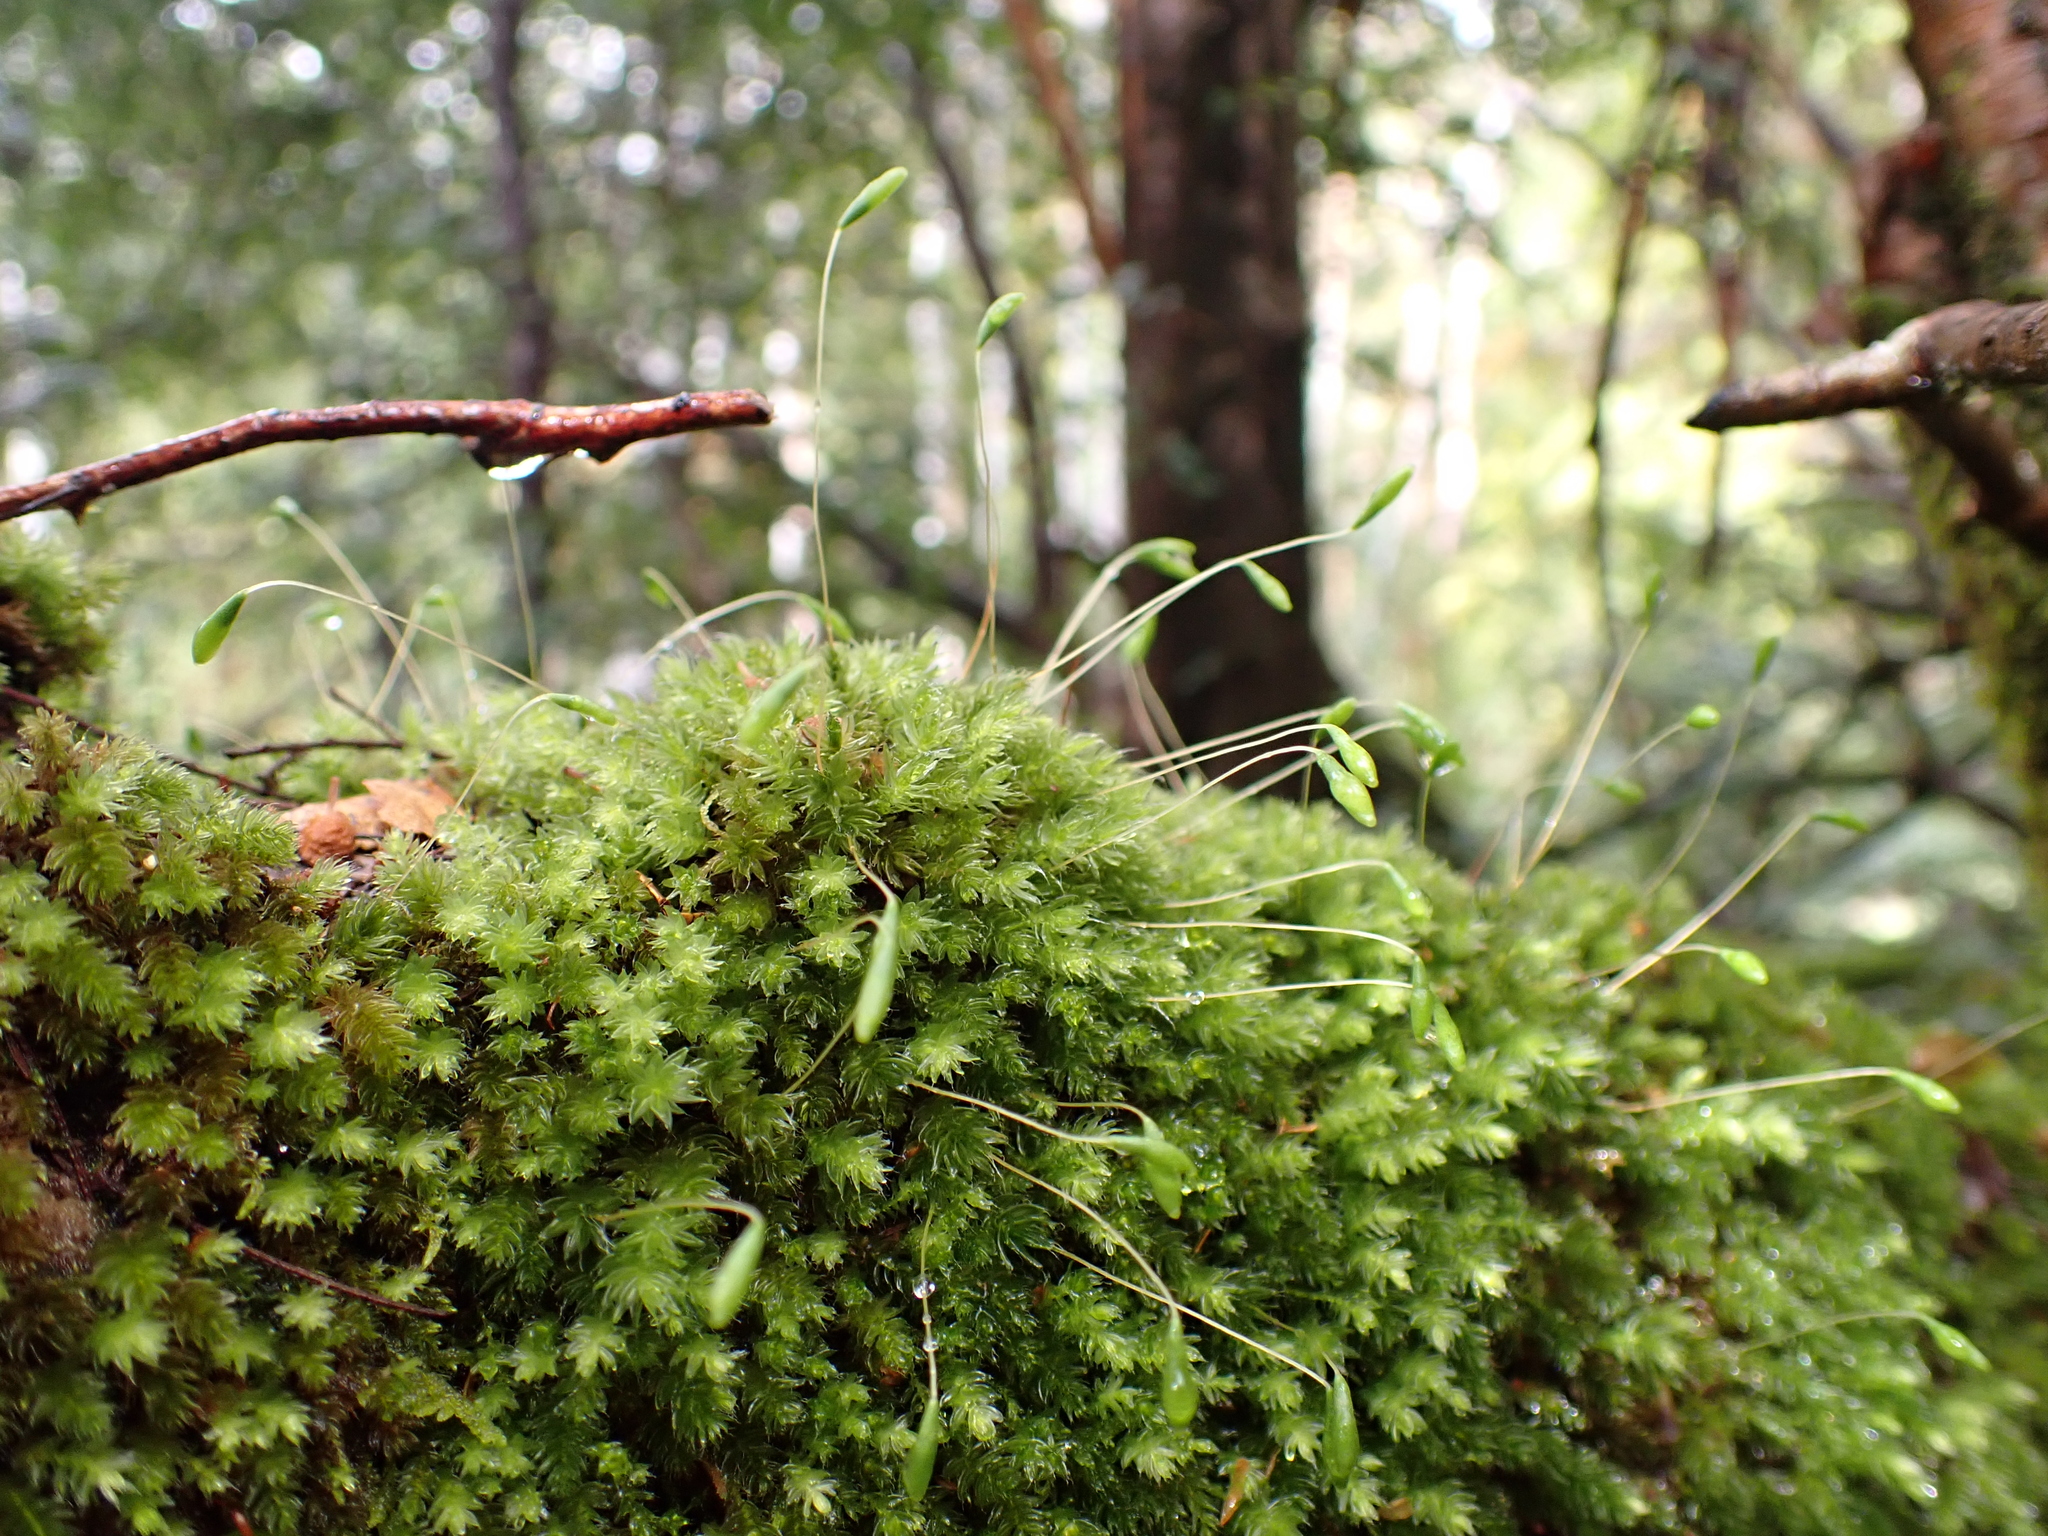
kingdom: Plantae
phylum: Bryophyta
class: Bryopsida
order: Bryales
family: Leptostomataceae
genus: Leptostomum
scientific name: Leptostomum inclinans
